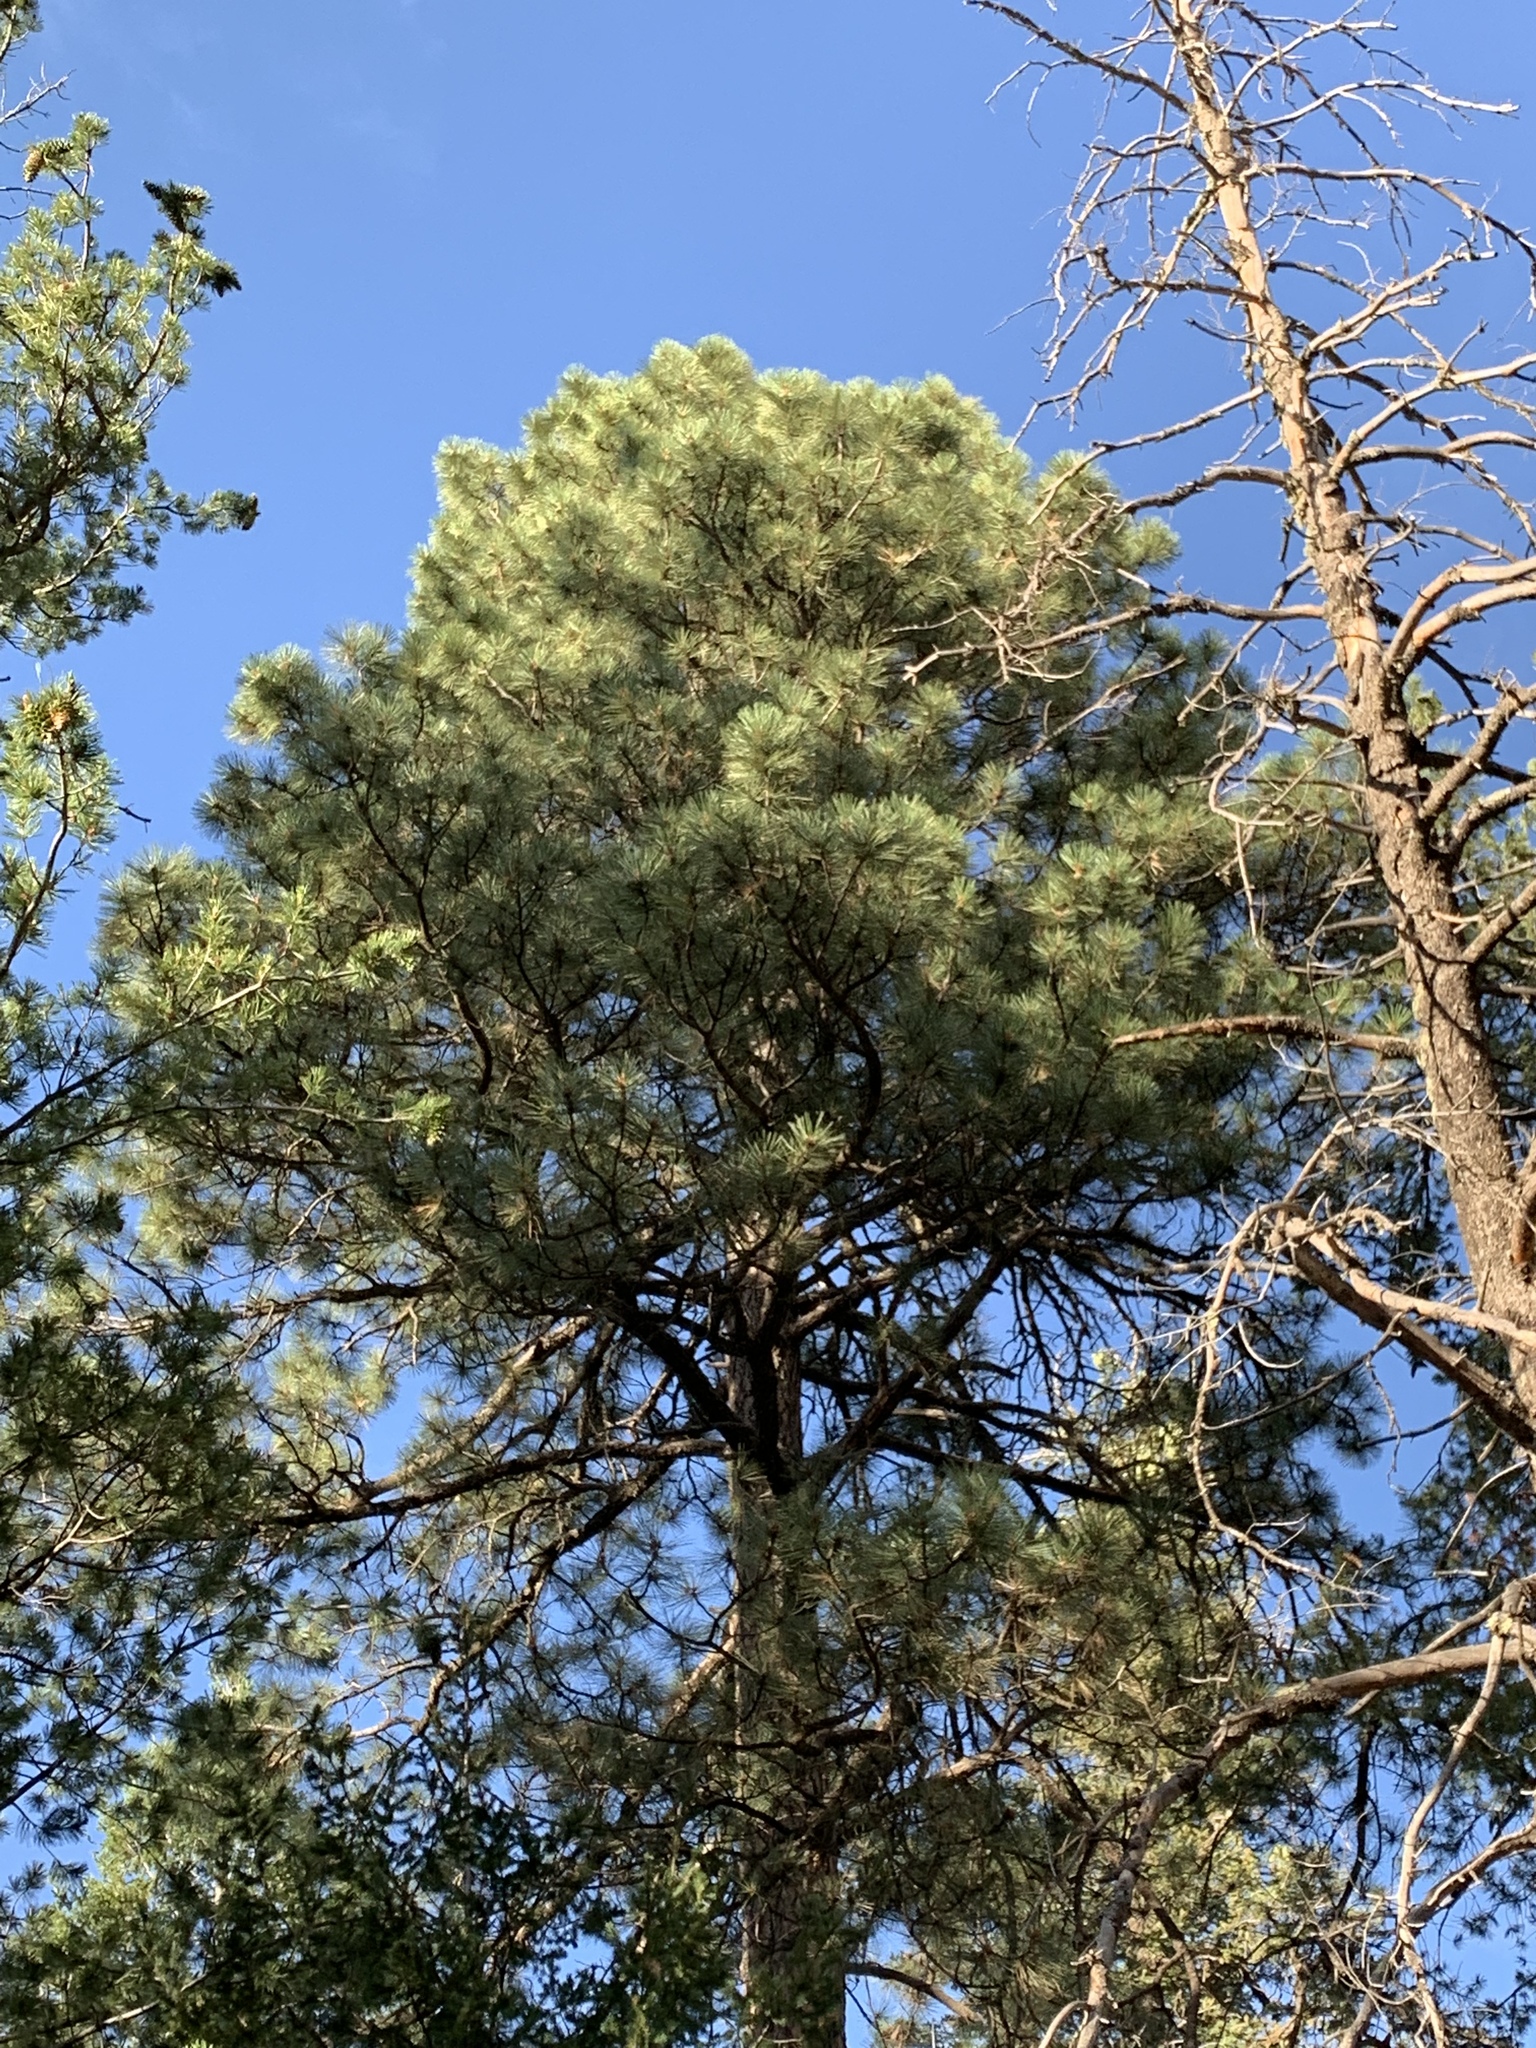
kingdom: Plantae
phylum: Tracheophyta
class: Pinopsida
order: Pinales
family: Pinaceae
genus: Pinus
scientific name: Pinus ponderosa
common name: Western yellow-pine
